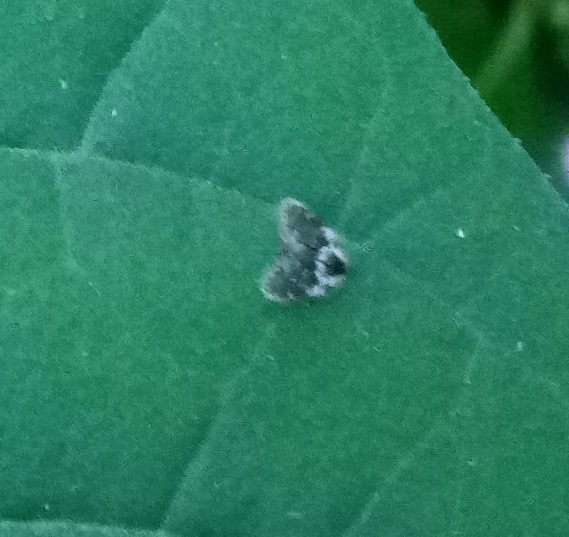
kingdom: Animalia
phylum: Arthropoda
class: Insecta
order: Diptera
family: Psychodidae
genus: Lepiseodina
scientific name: Lepiseodina
